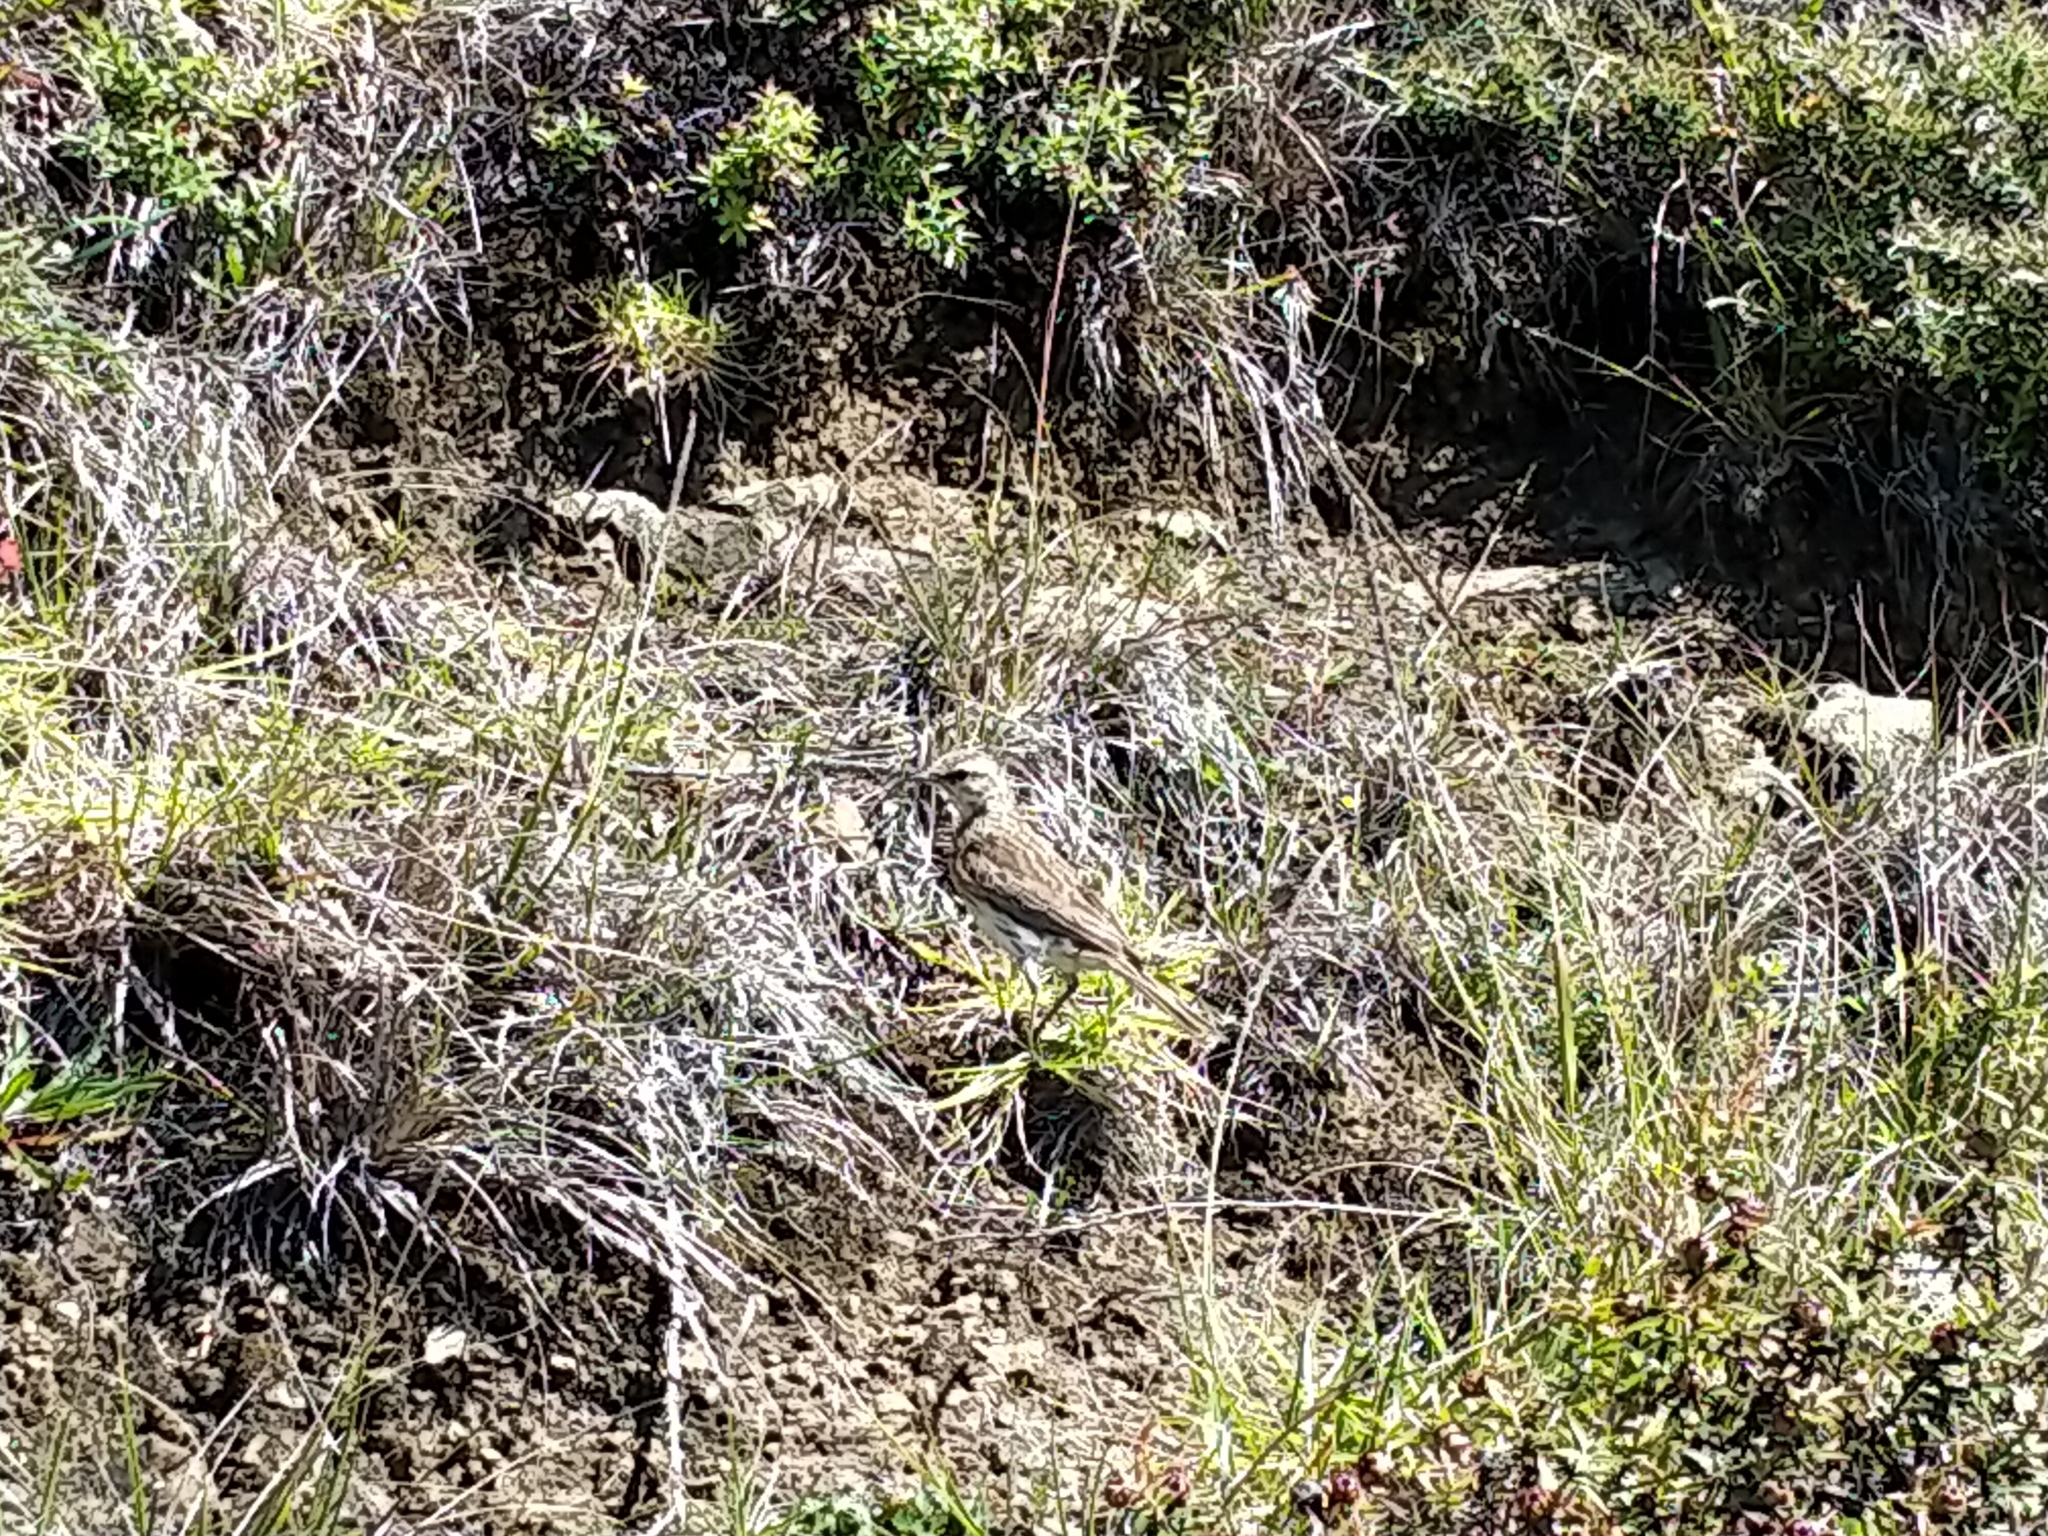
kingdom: Animalia
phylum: Chordata
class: Aves
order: Passeriformes
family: Motacillidae
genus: Anthus
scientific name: Anthus novaeseelandiae
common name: New zealand pipit
